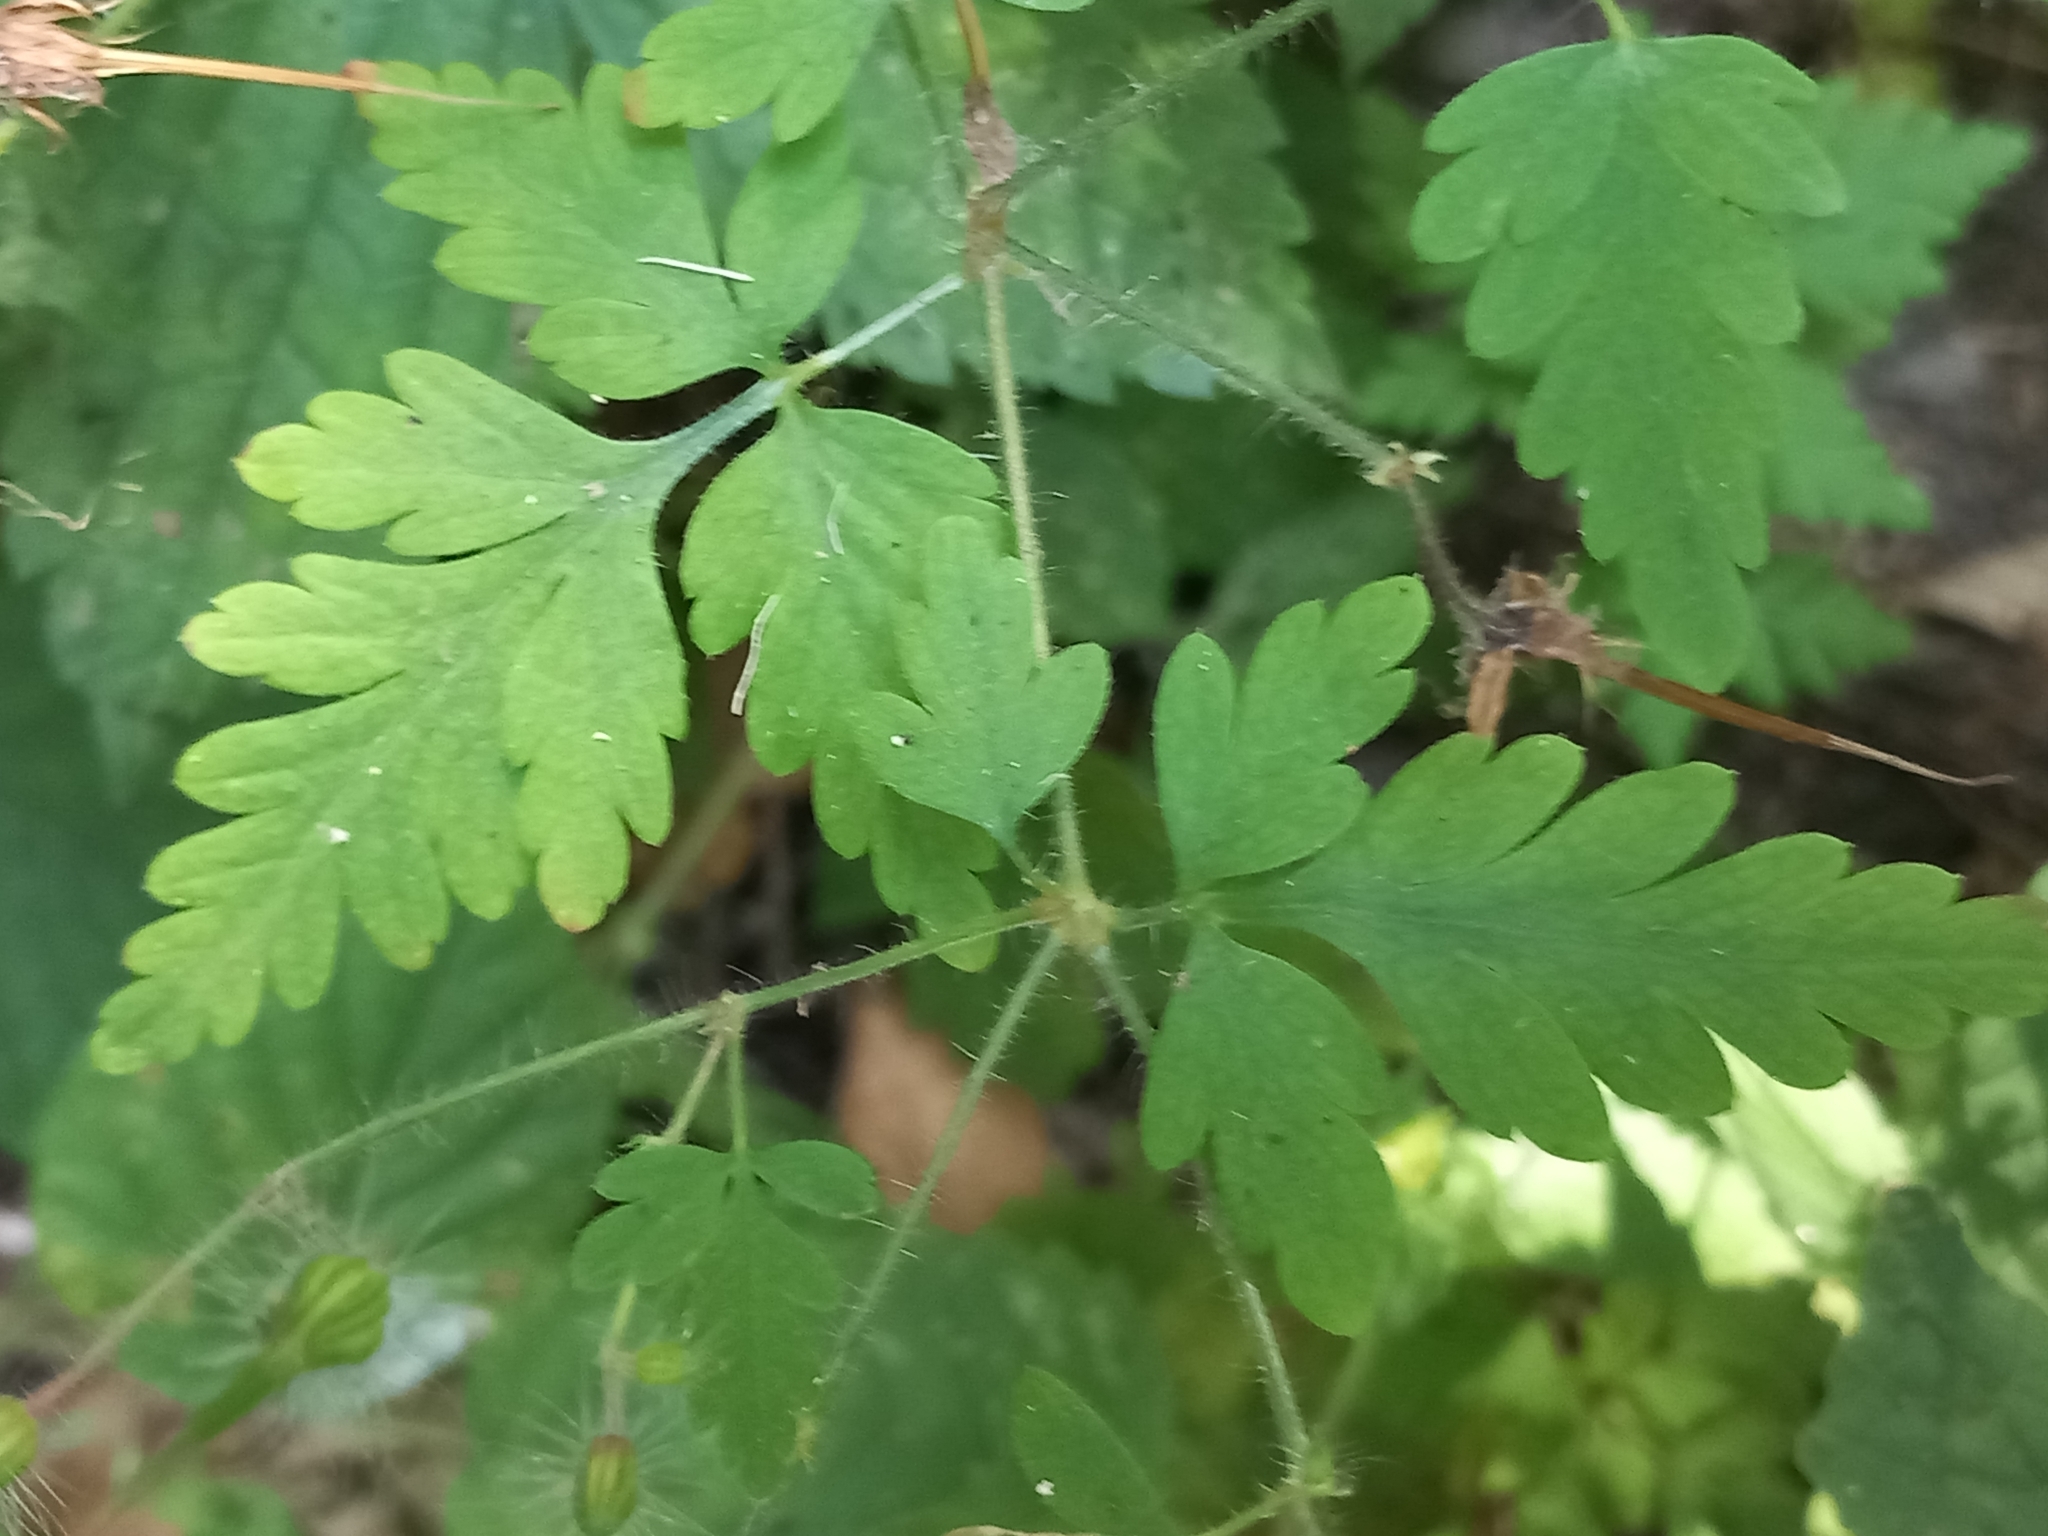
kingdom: Plantae
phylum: Tracheophyta
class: Magnoliopsida
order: Geraniales
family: Geraniaceae
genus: Geranium
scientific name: Geranium robertianum
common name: Herb-robert
